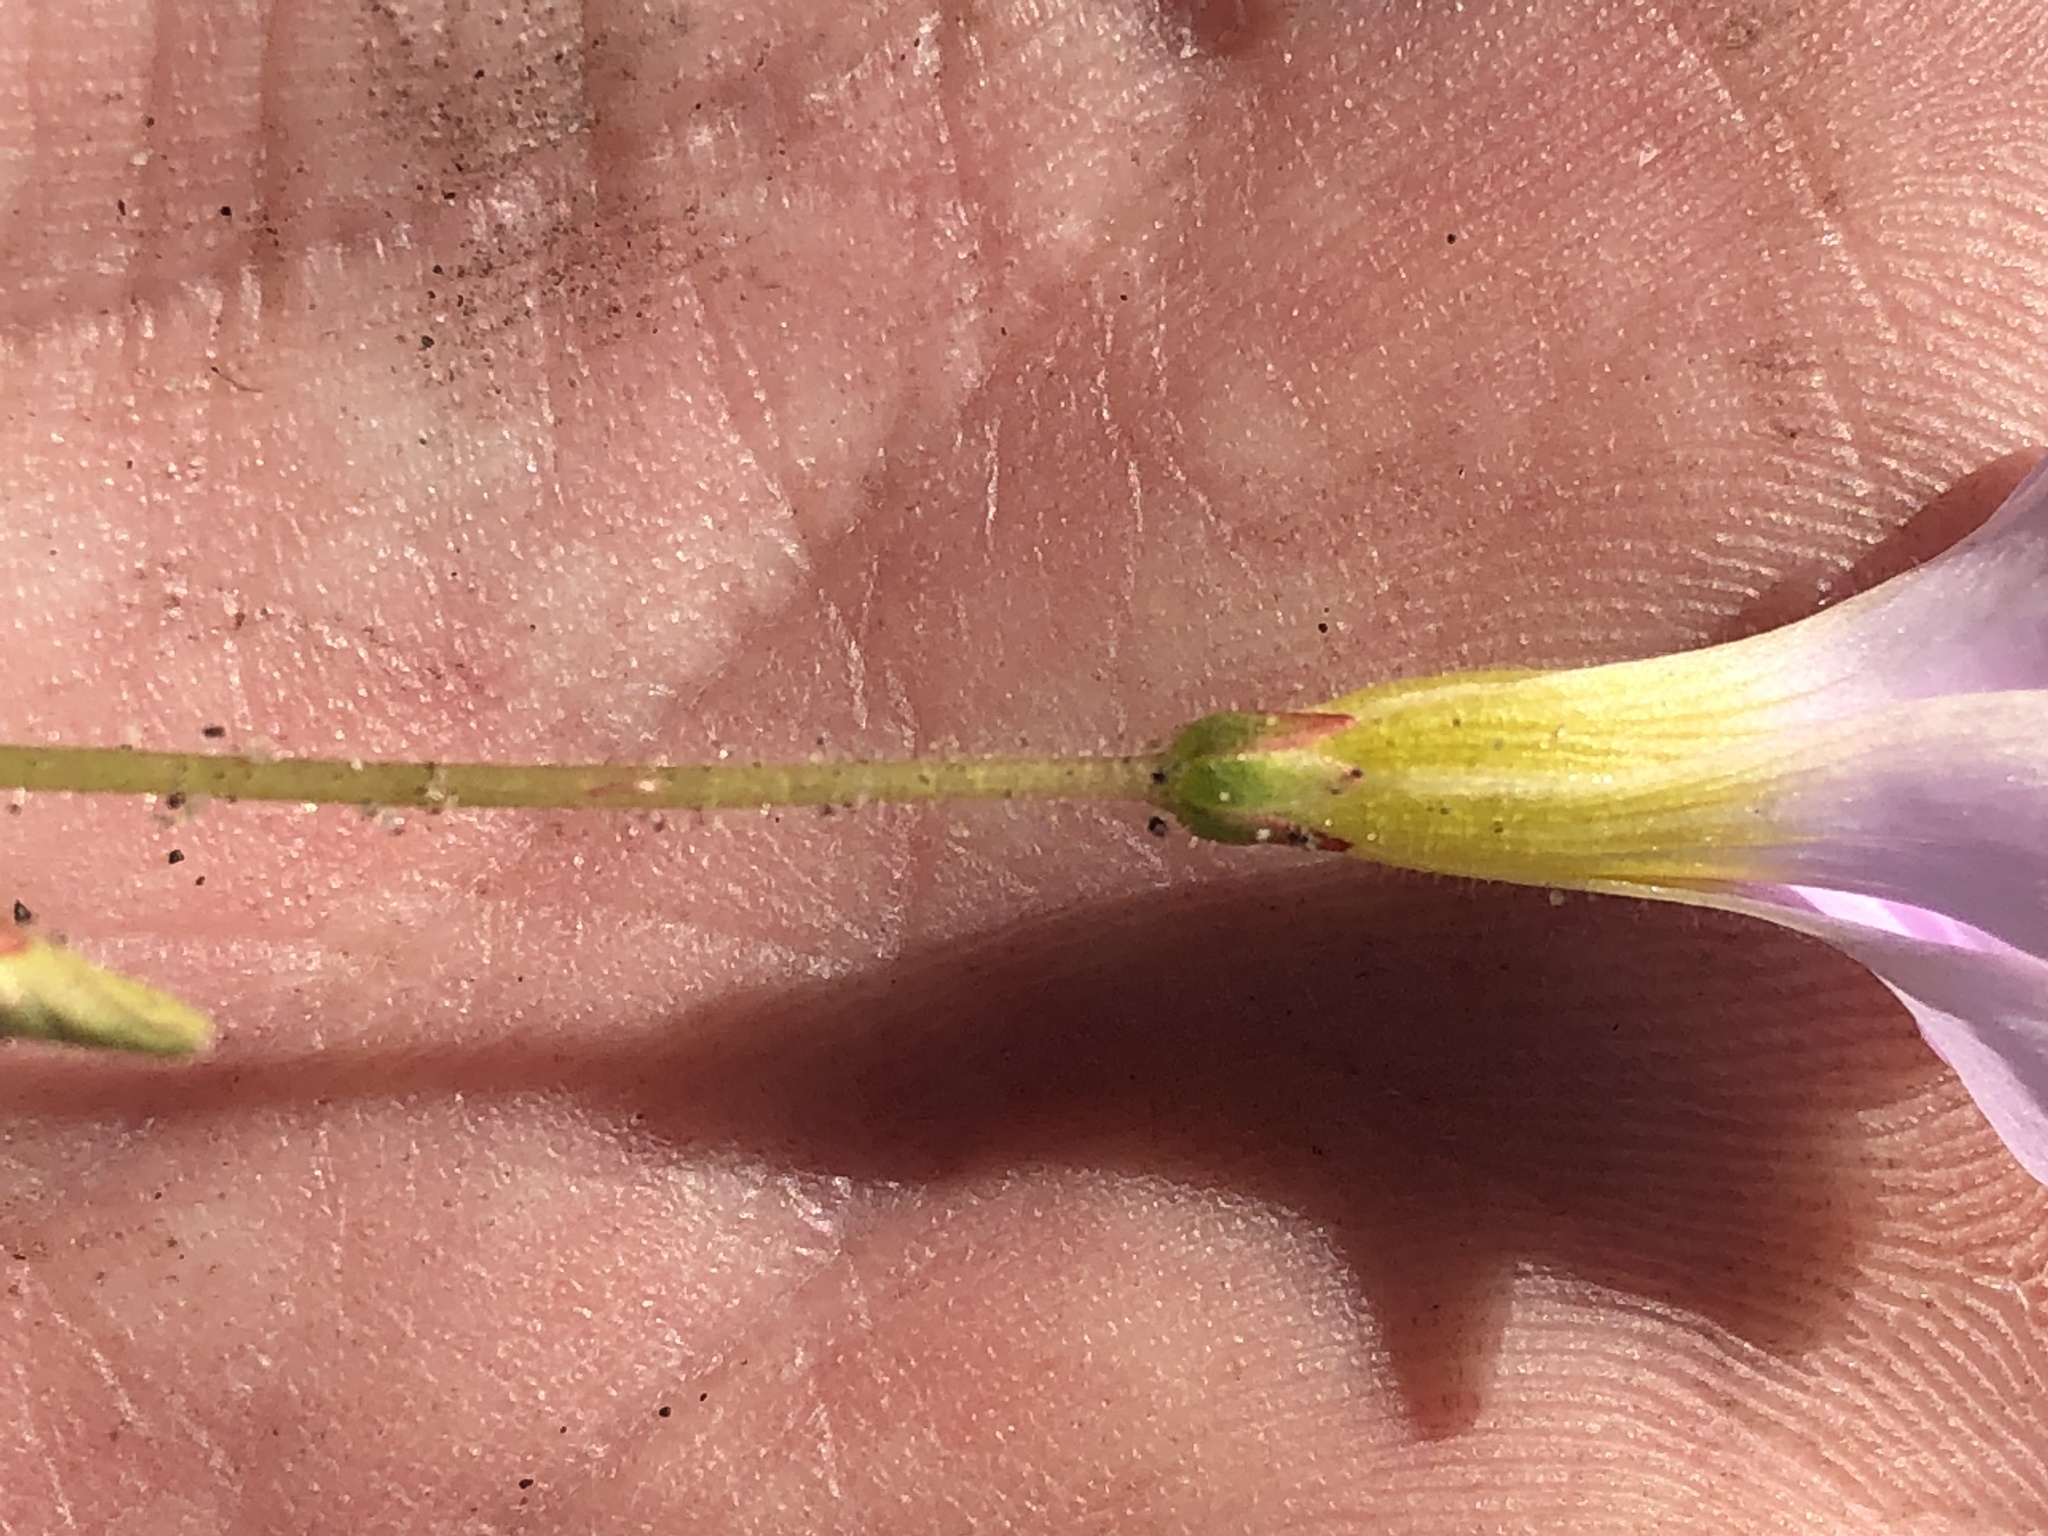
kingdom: Plantae
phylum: Tracheophyta
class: Magnoliopsida
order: Oxalidales
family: Oxalidaceae
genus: Oxalis
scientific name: Oxalis punctata
